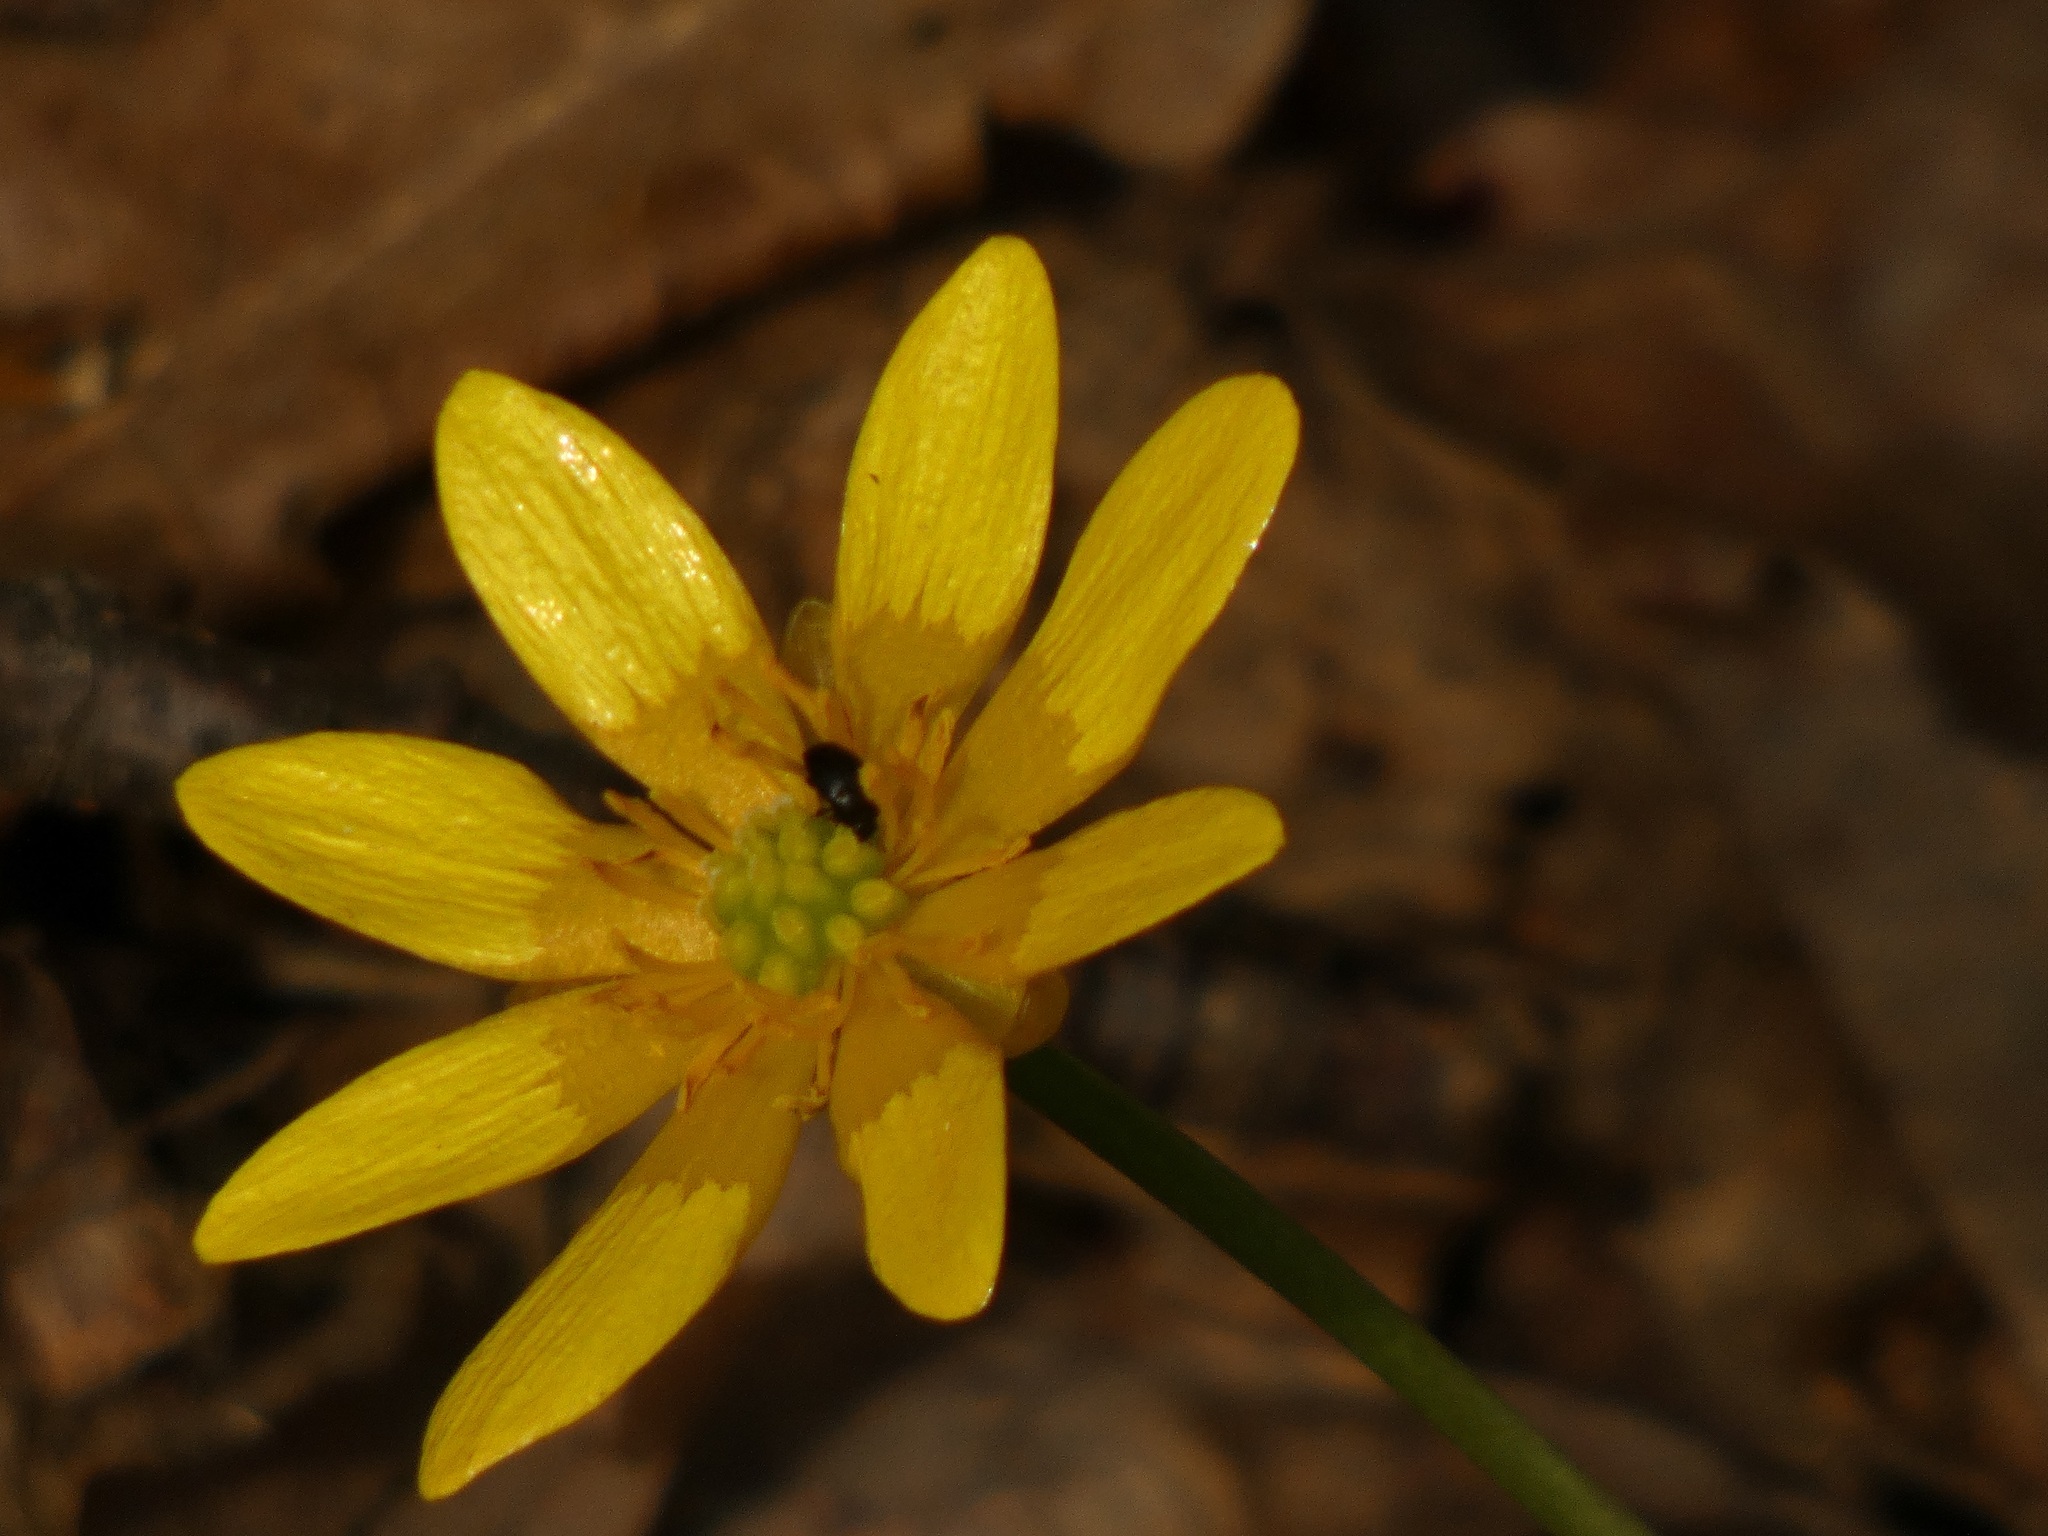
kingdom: Plantae
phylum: Tracheophyta
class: Magnoliopsida
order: Ranunculales
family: Ranunculaceae
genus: Ficaria
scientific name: Ficaria verna
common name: Lesser celandine
